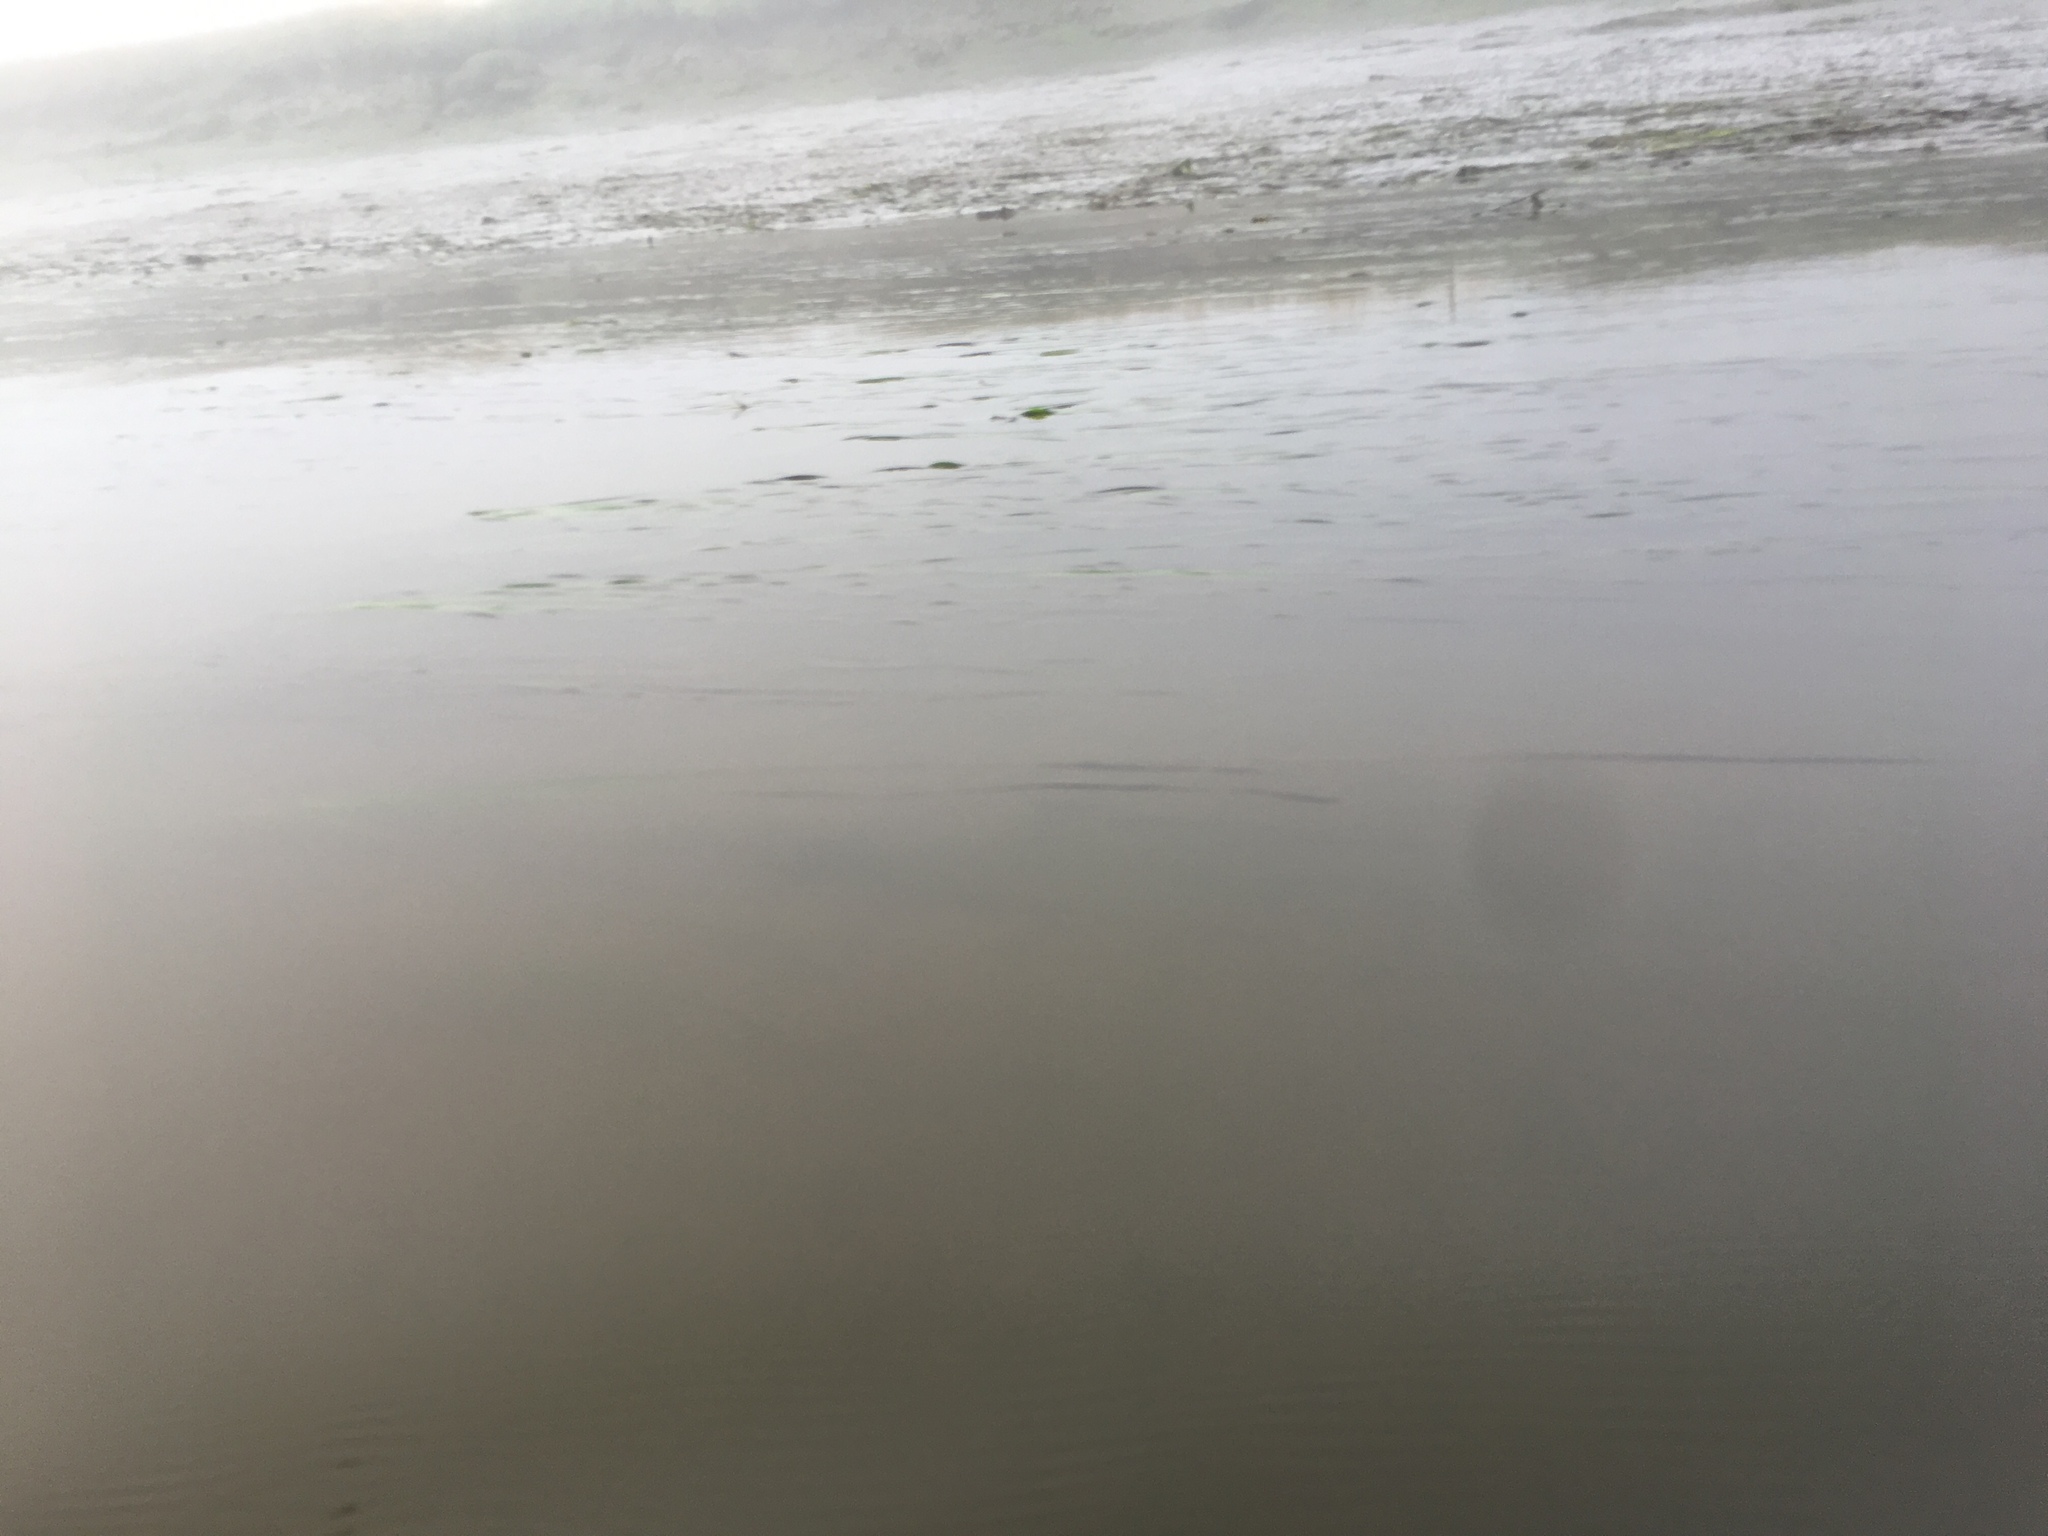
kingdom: Plantae
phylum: Tracheophyta
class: Liliopsida
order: Alismatales
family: Zosteraceae
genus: Zostera
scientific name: Zostera marina
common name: Eelgrass
